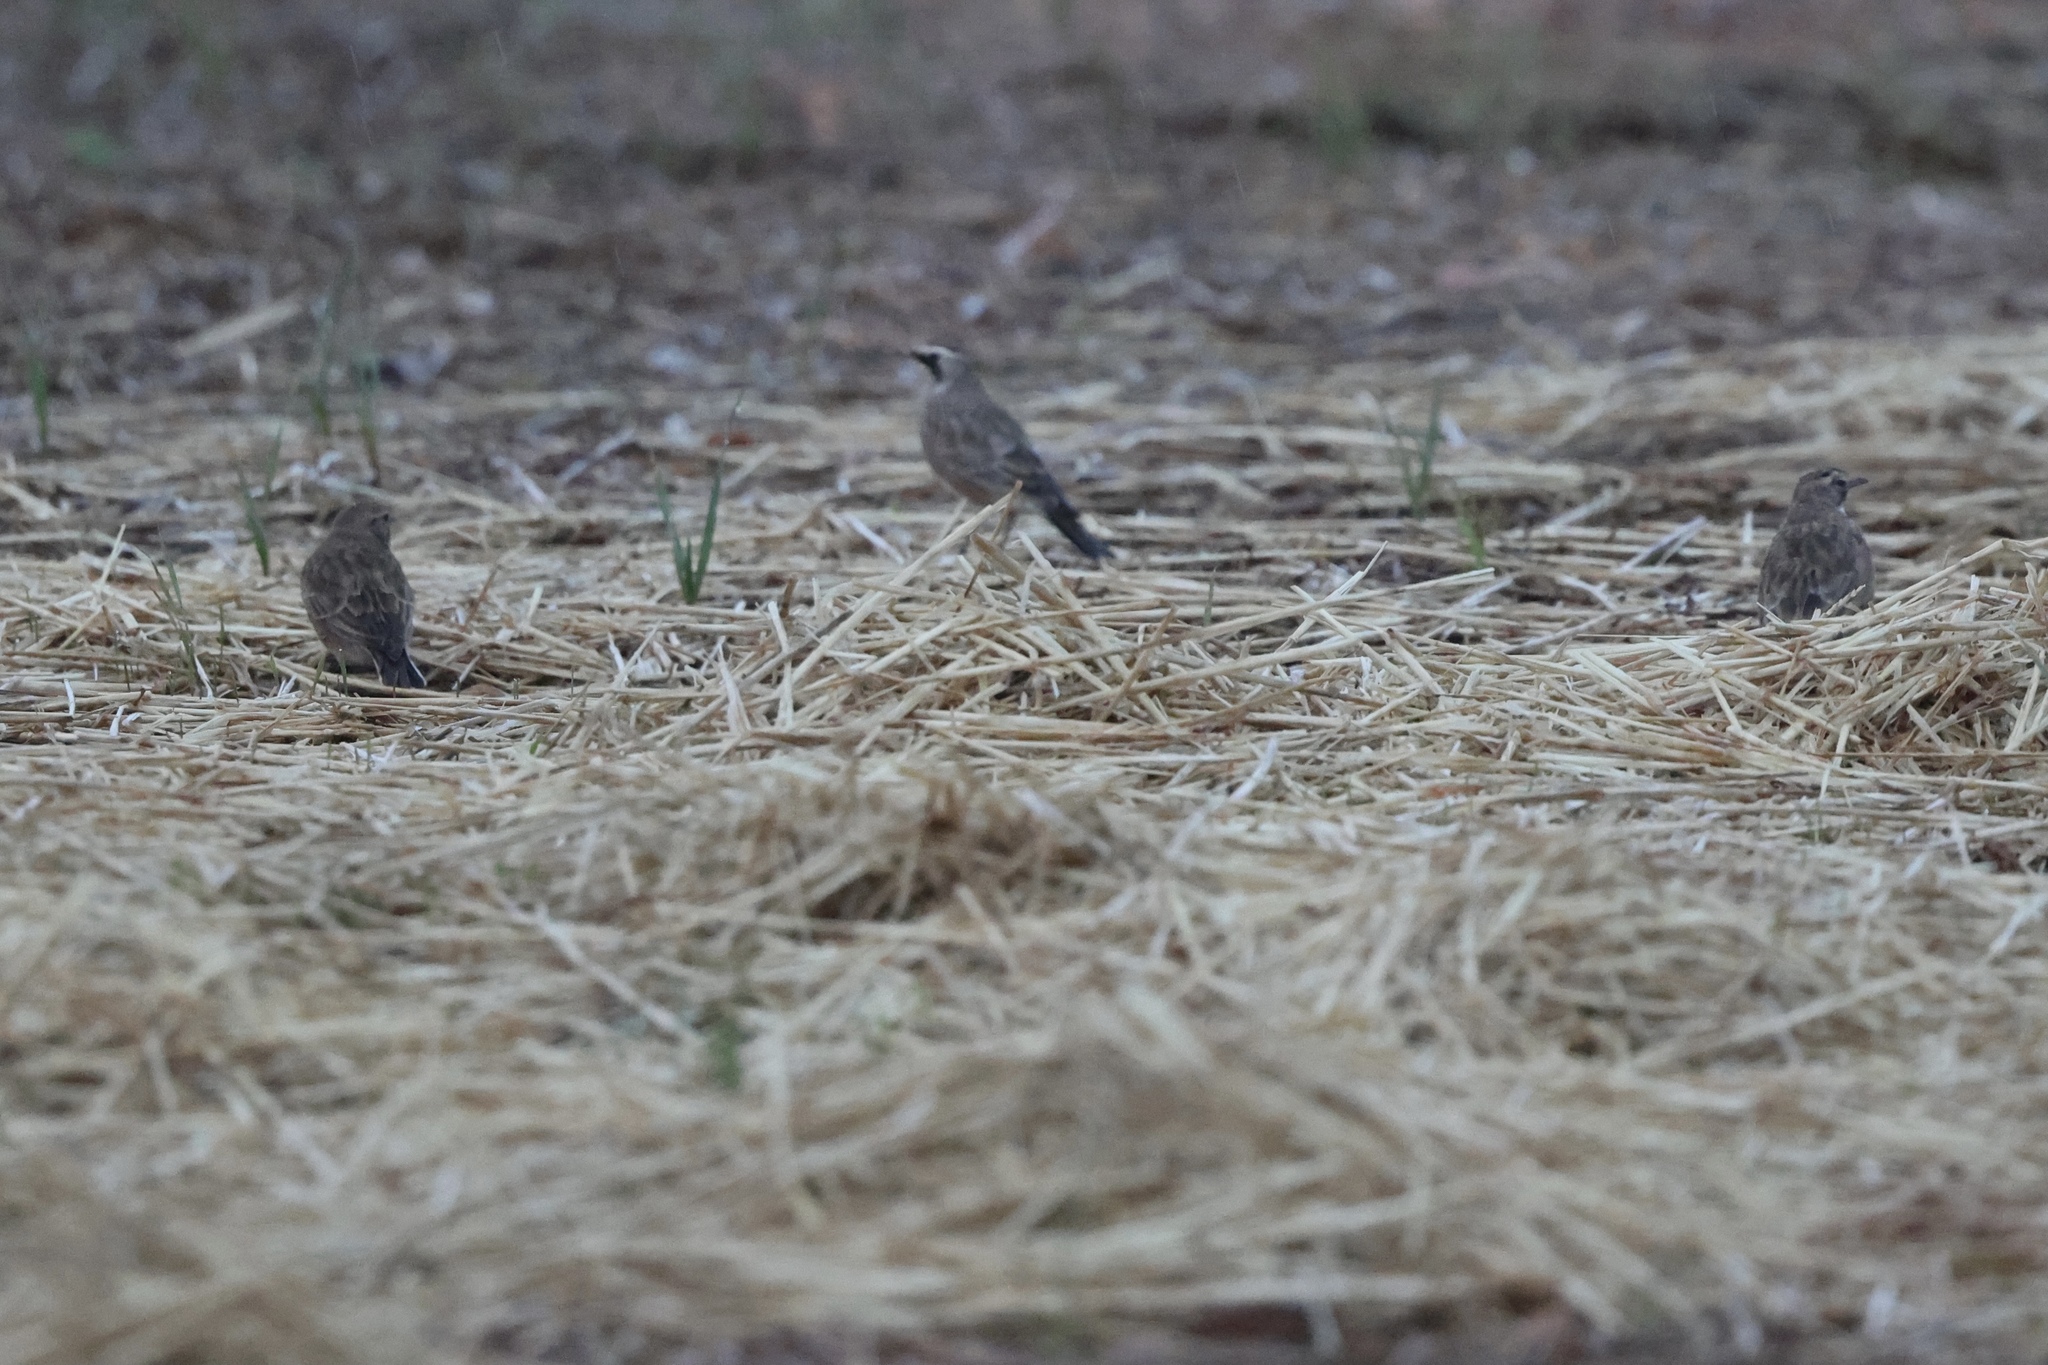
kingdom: Animalia
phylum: Chordata
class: Aves
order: Passeriformes
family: Alaudidae
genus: Eremophila
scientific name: Eremophila alpestris
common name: Horned lark
